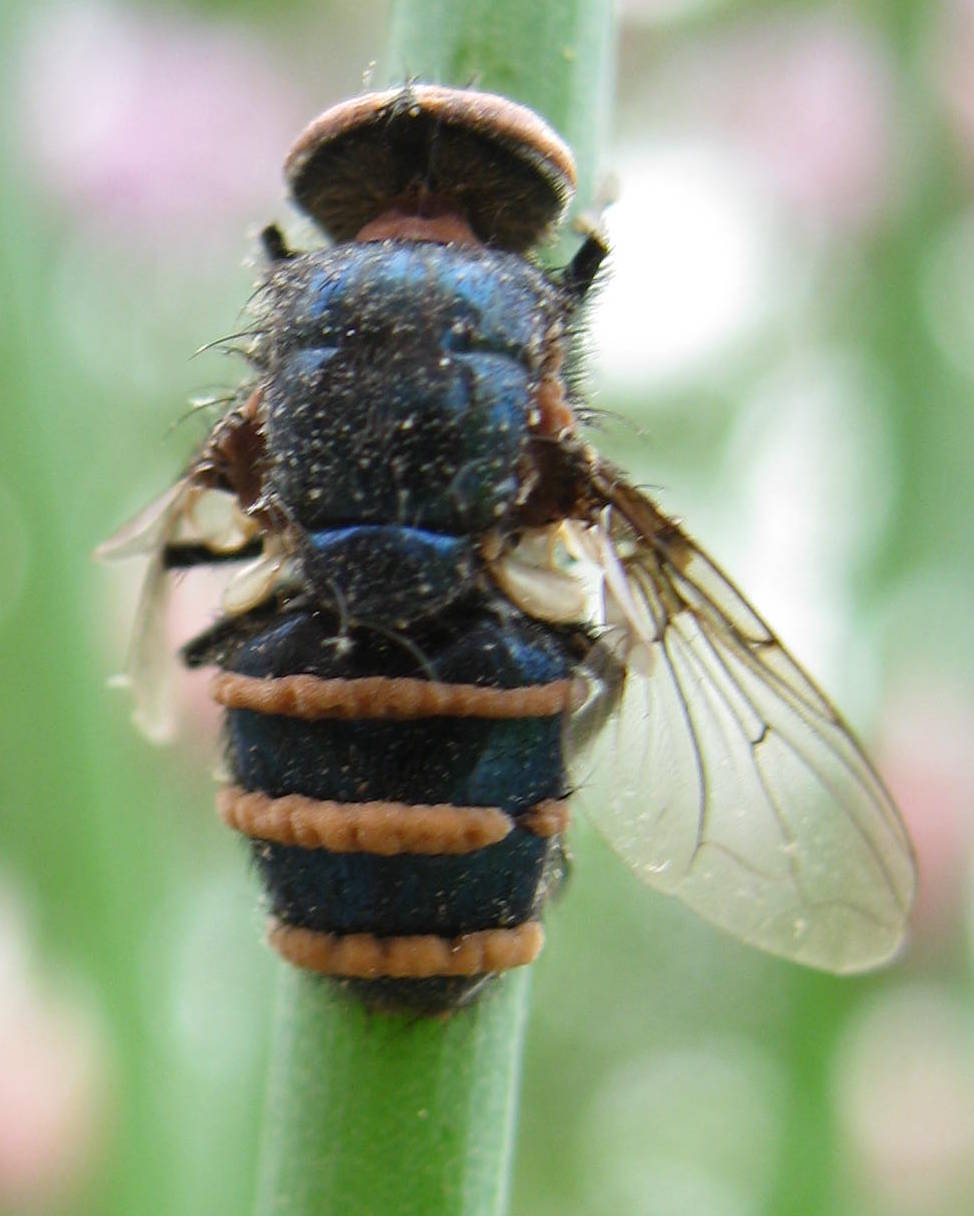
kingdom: Fungi
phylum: Entomophthoromycota
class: Entomophthoromycetes
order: Entomophthorales
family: Entomophthoraceae
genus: Entomophthora
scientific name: Entomophthora
